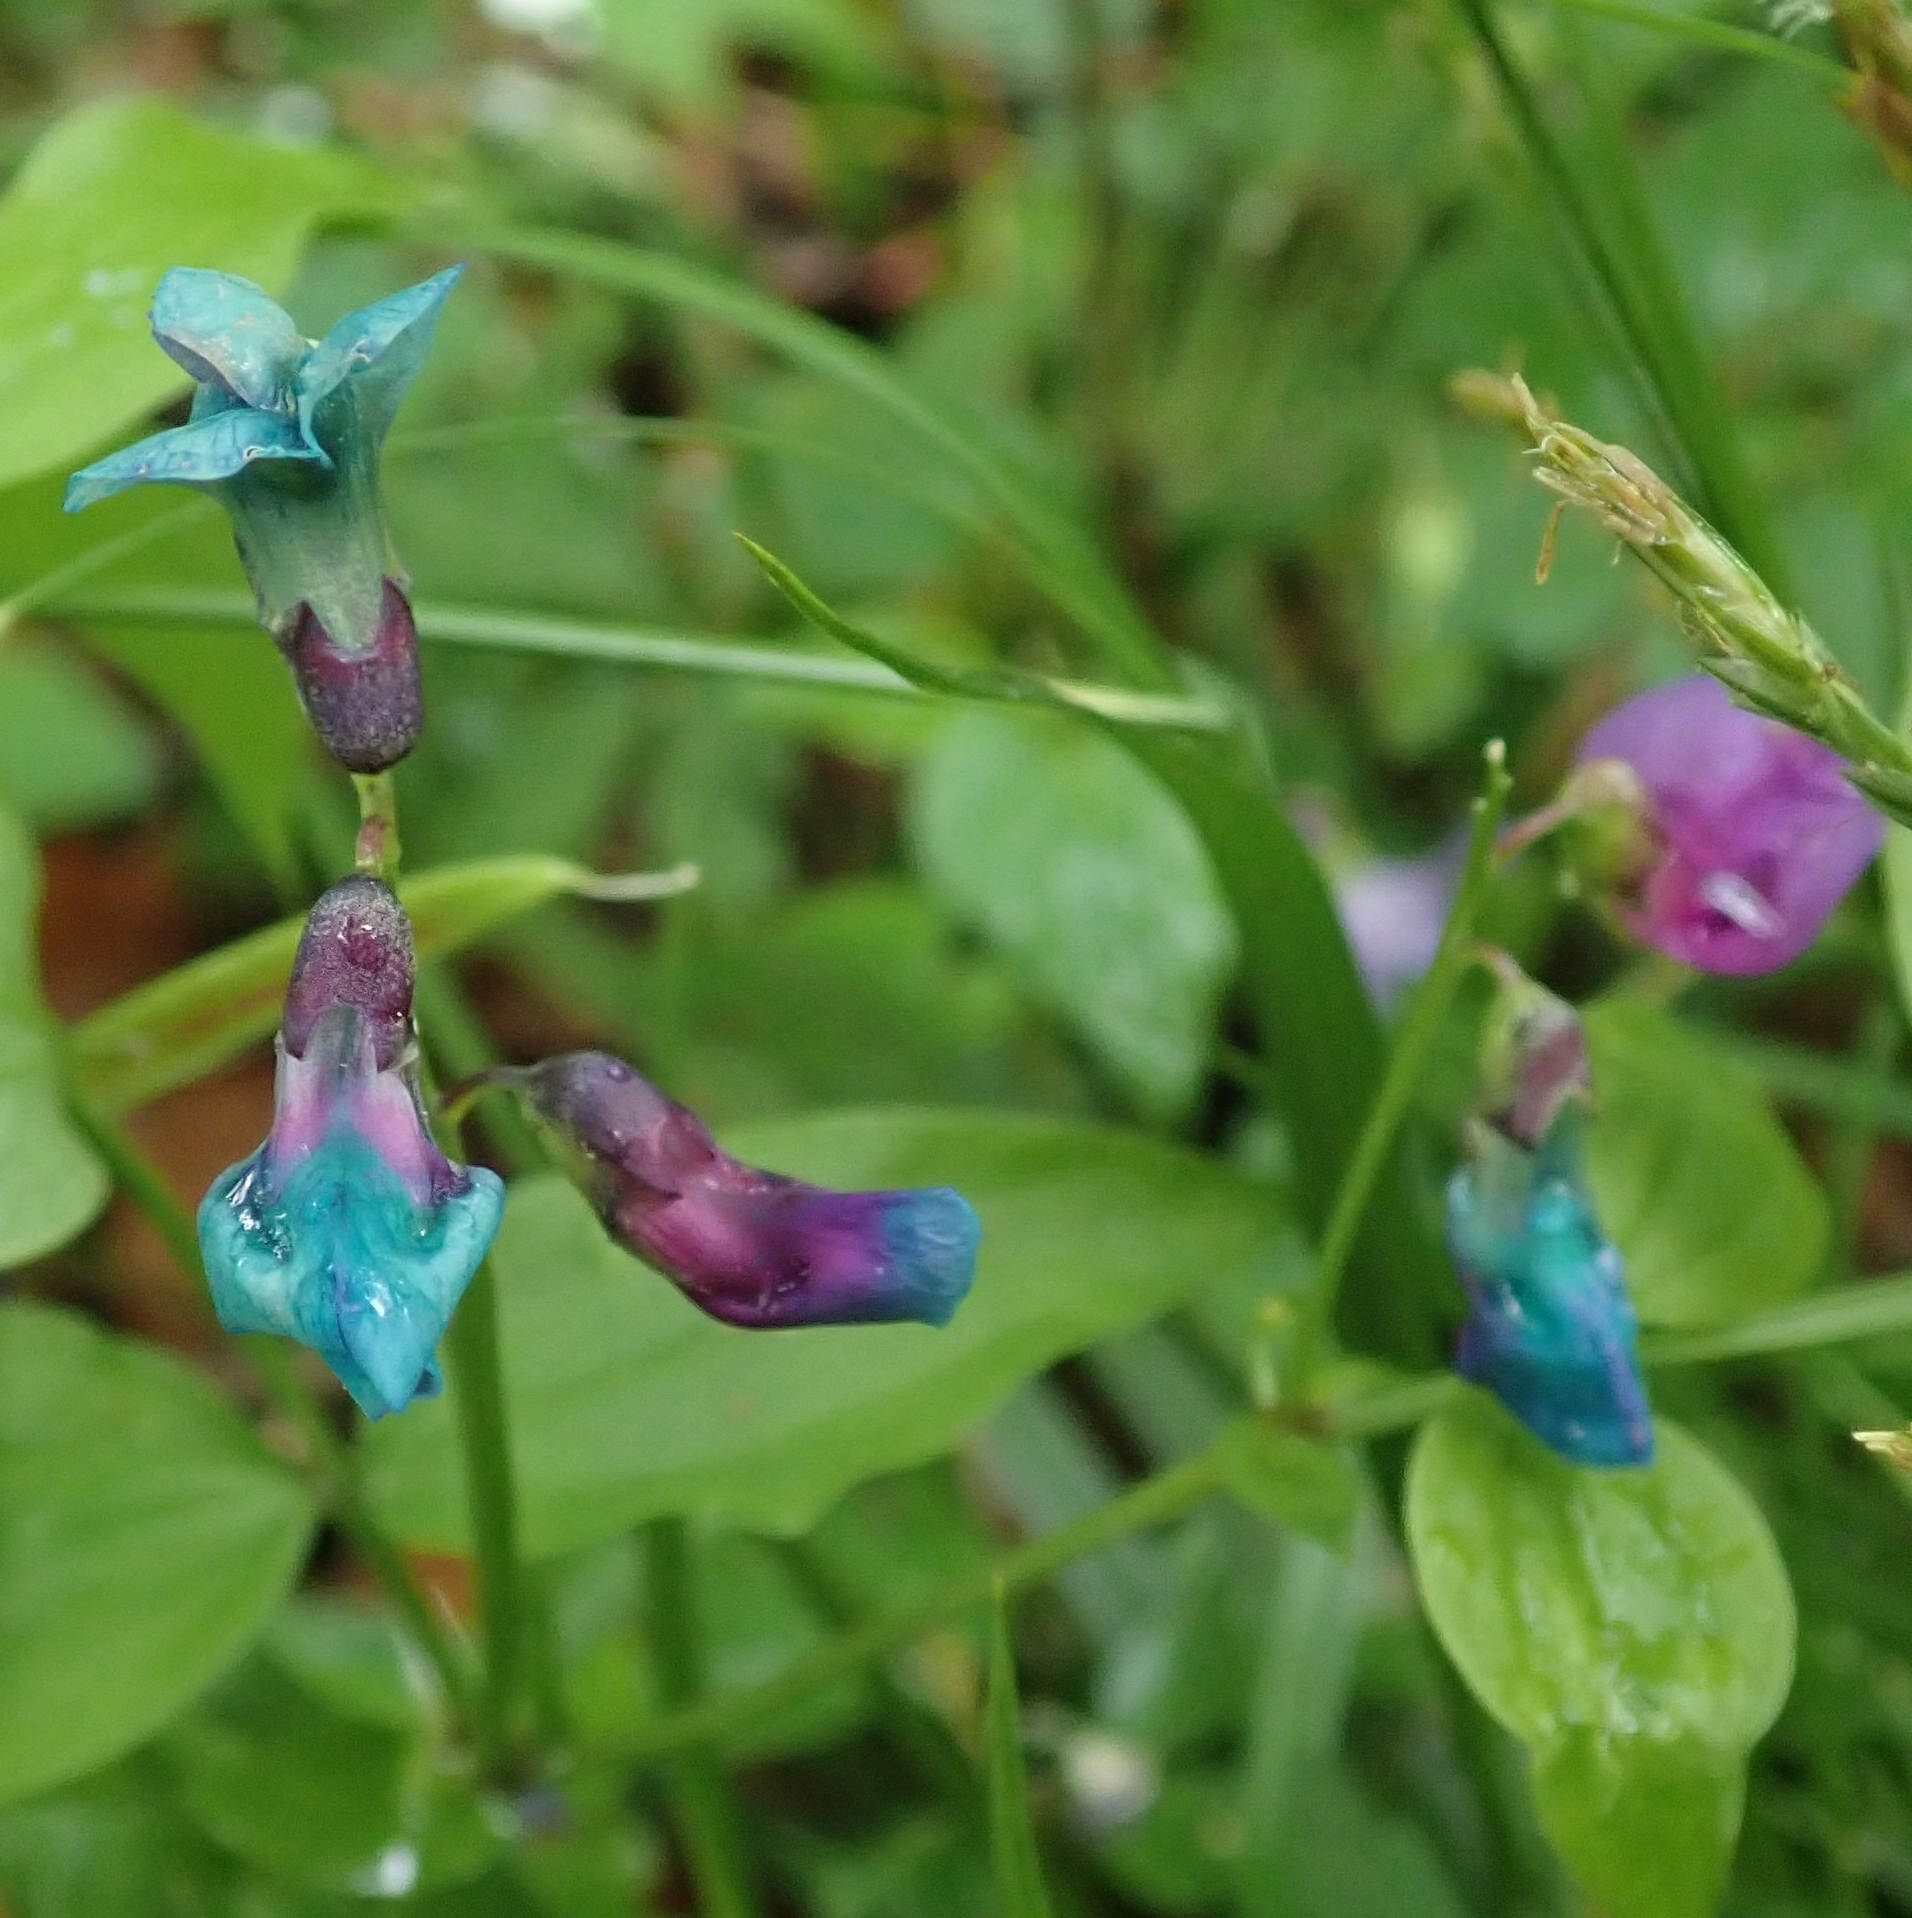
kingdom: Plantae
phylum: Tracheophyta
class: Magnoliopsida
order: Fabales
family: Fabaceae
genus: Lathyrus
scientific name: Lathyrus vernus
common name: Spring pea
